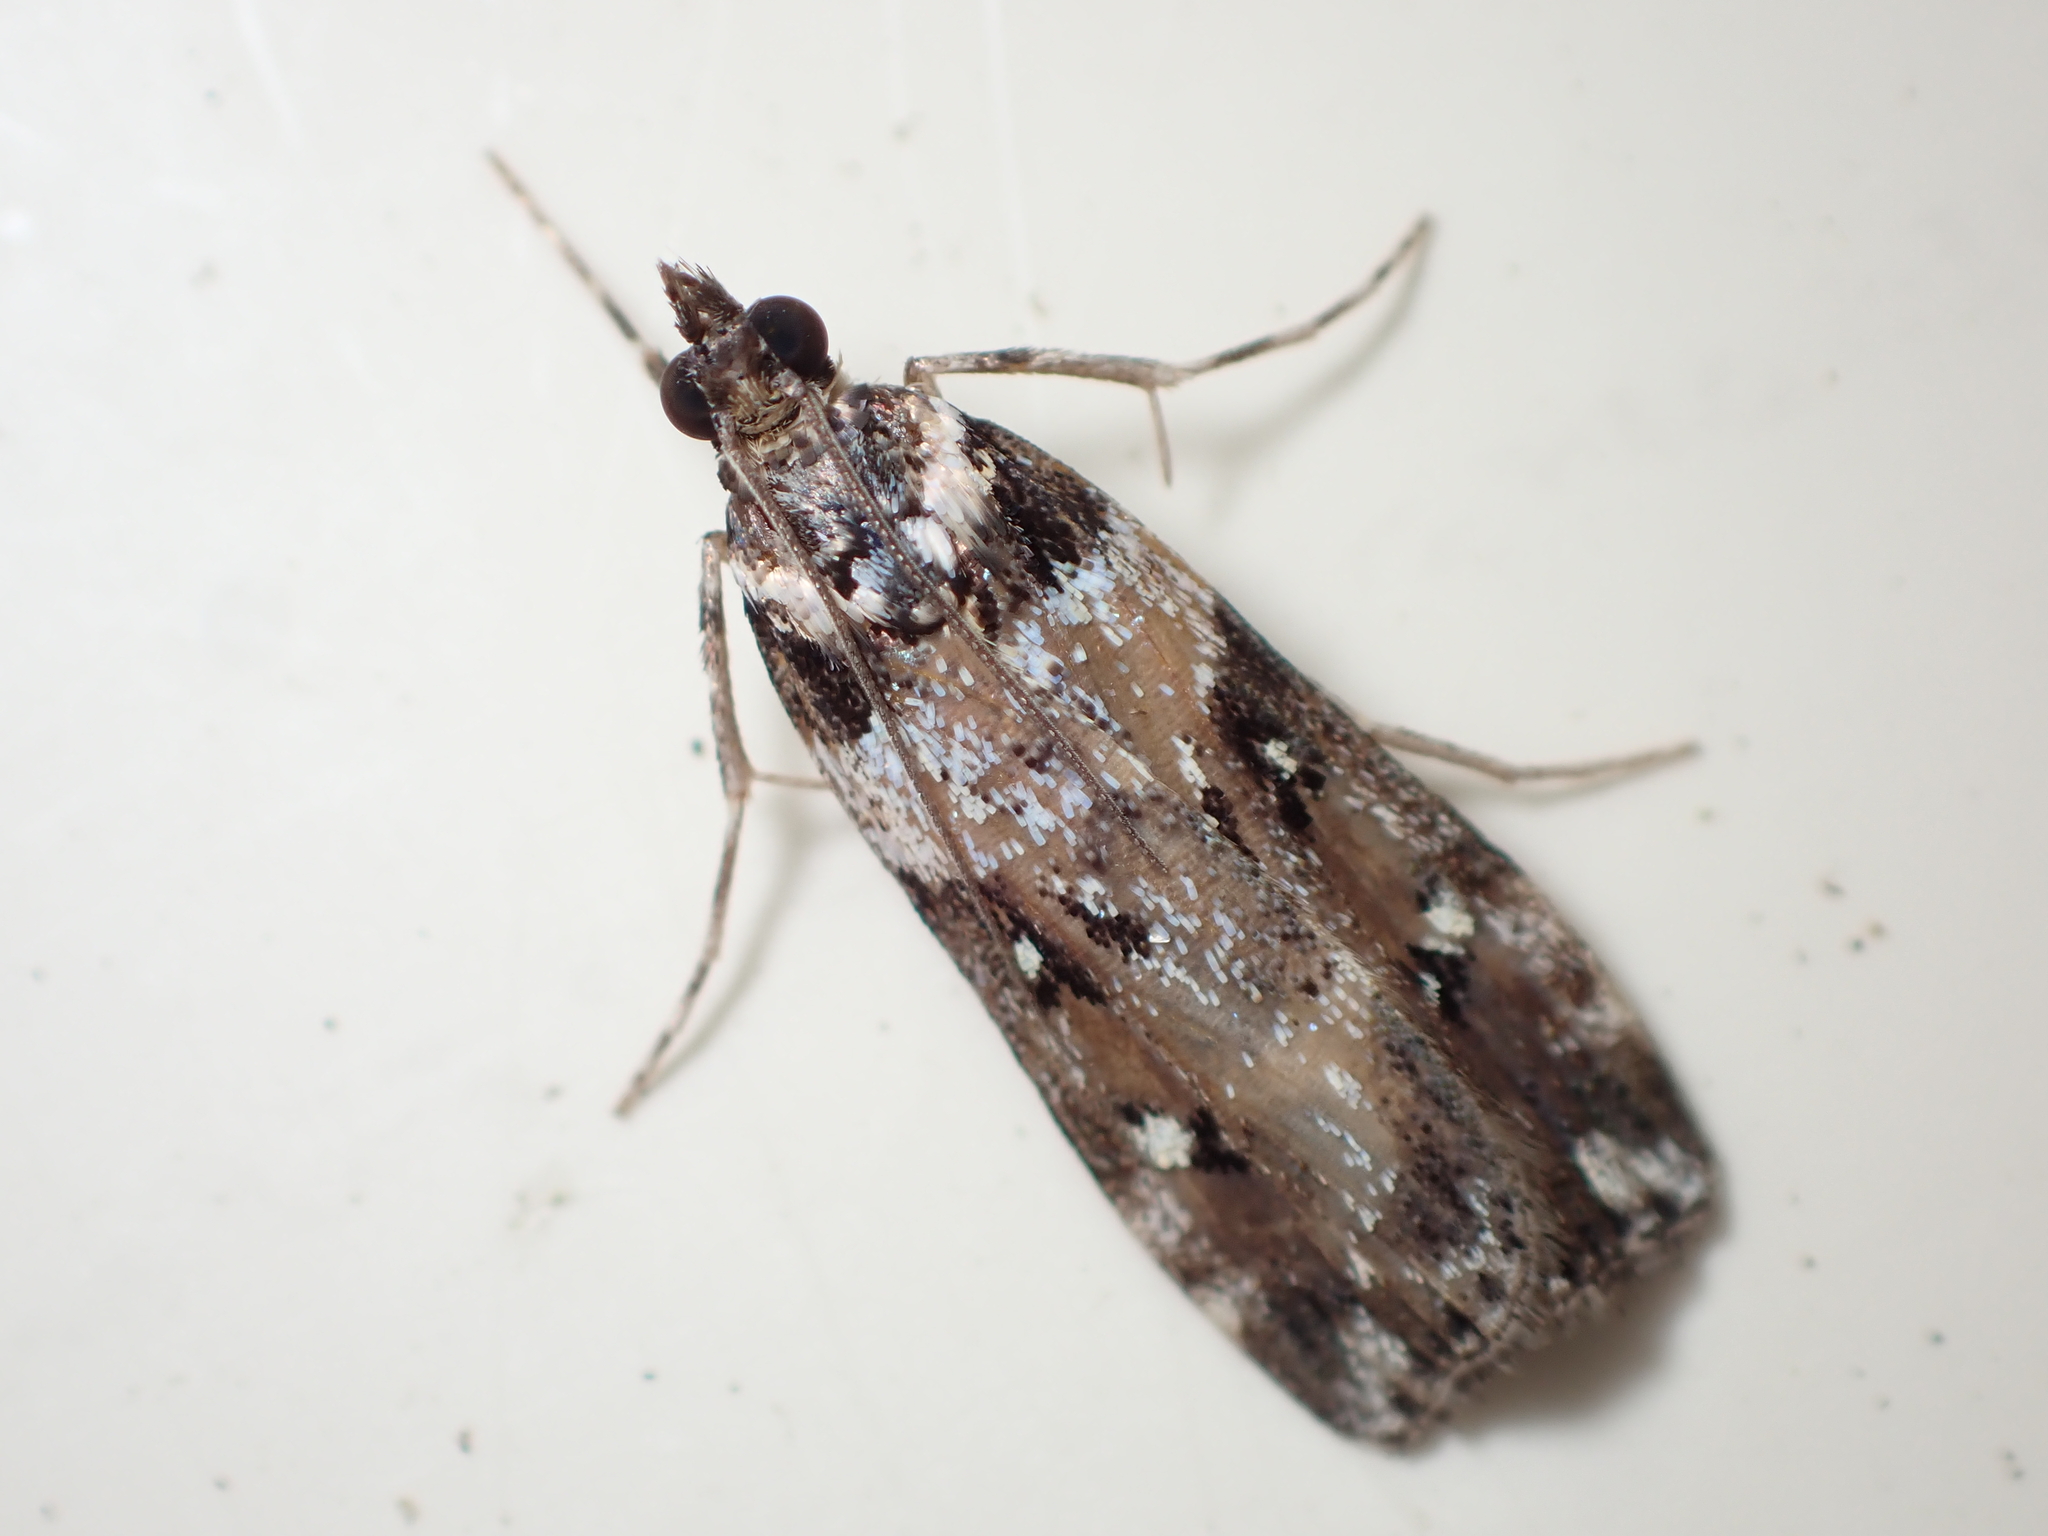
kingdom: Animalia
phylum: Arthropoda
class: Insecta
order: Lepidoptera
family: Crambidae
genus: Eudonia
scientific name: Eudonia diphtheralis
